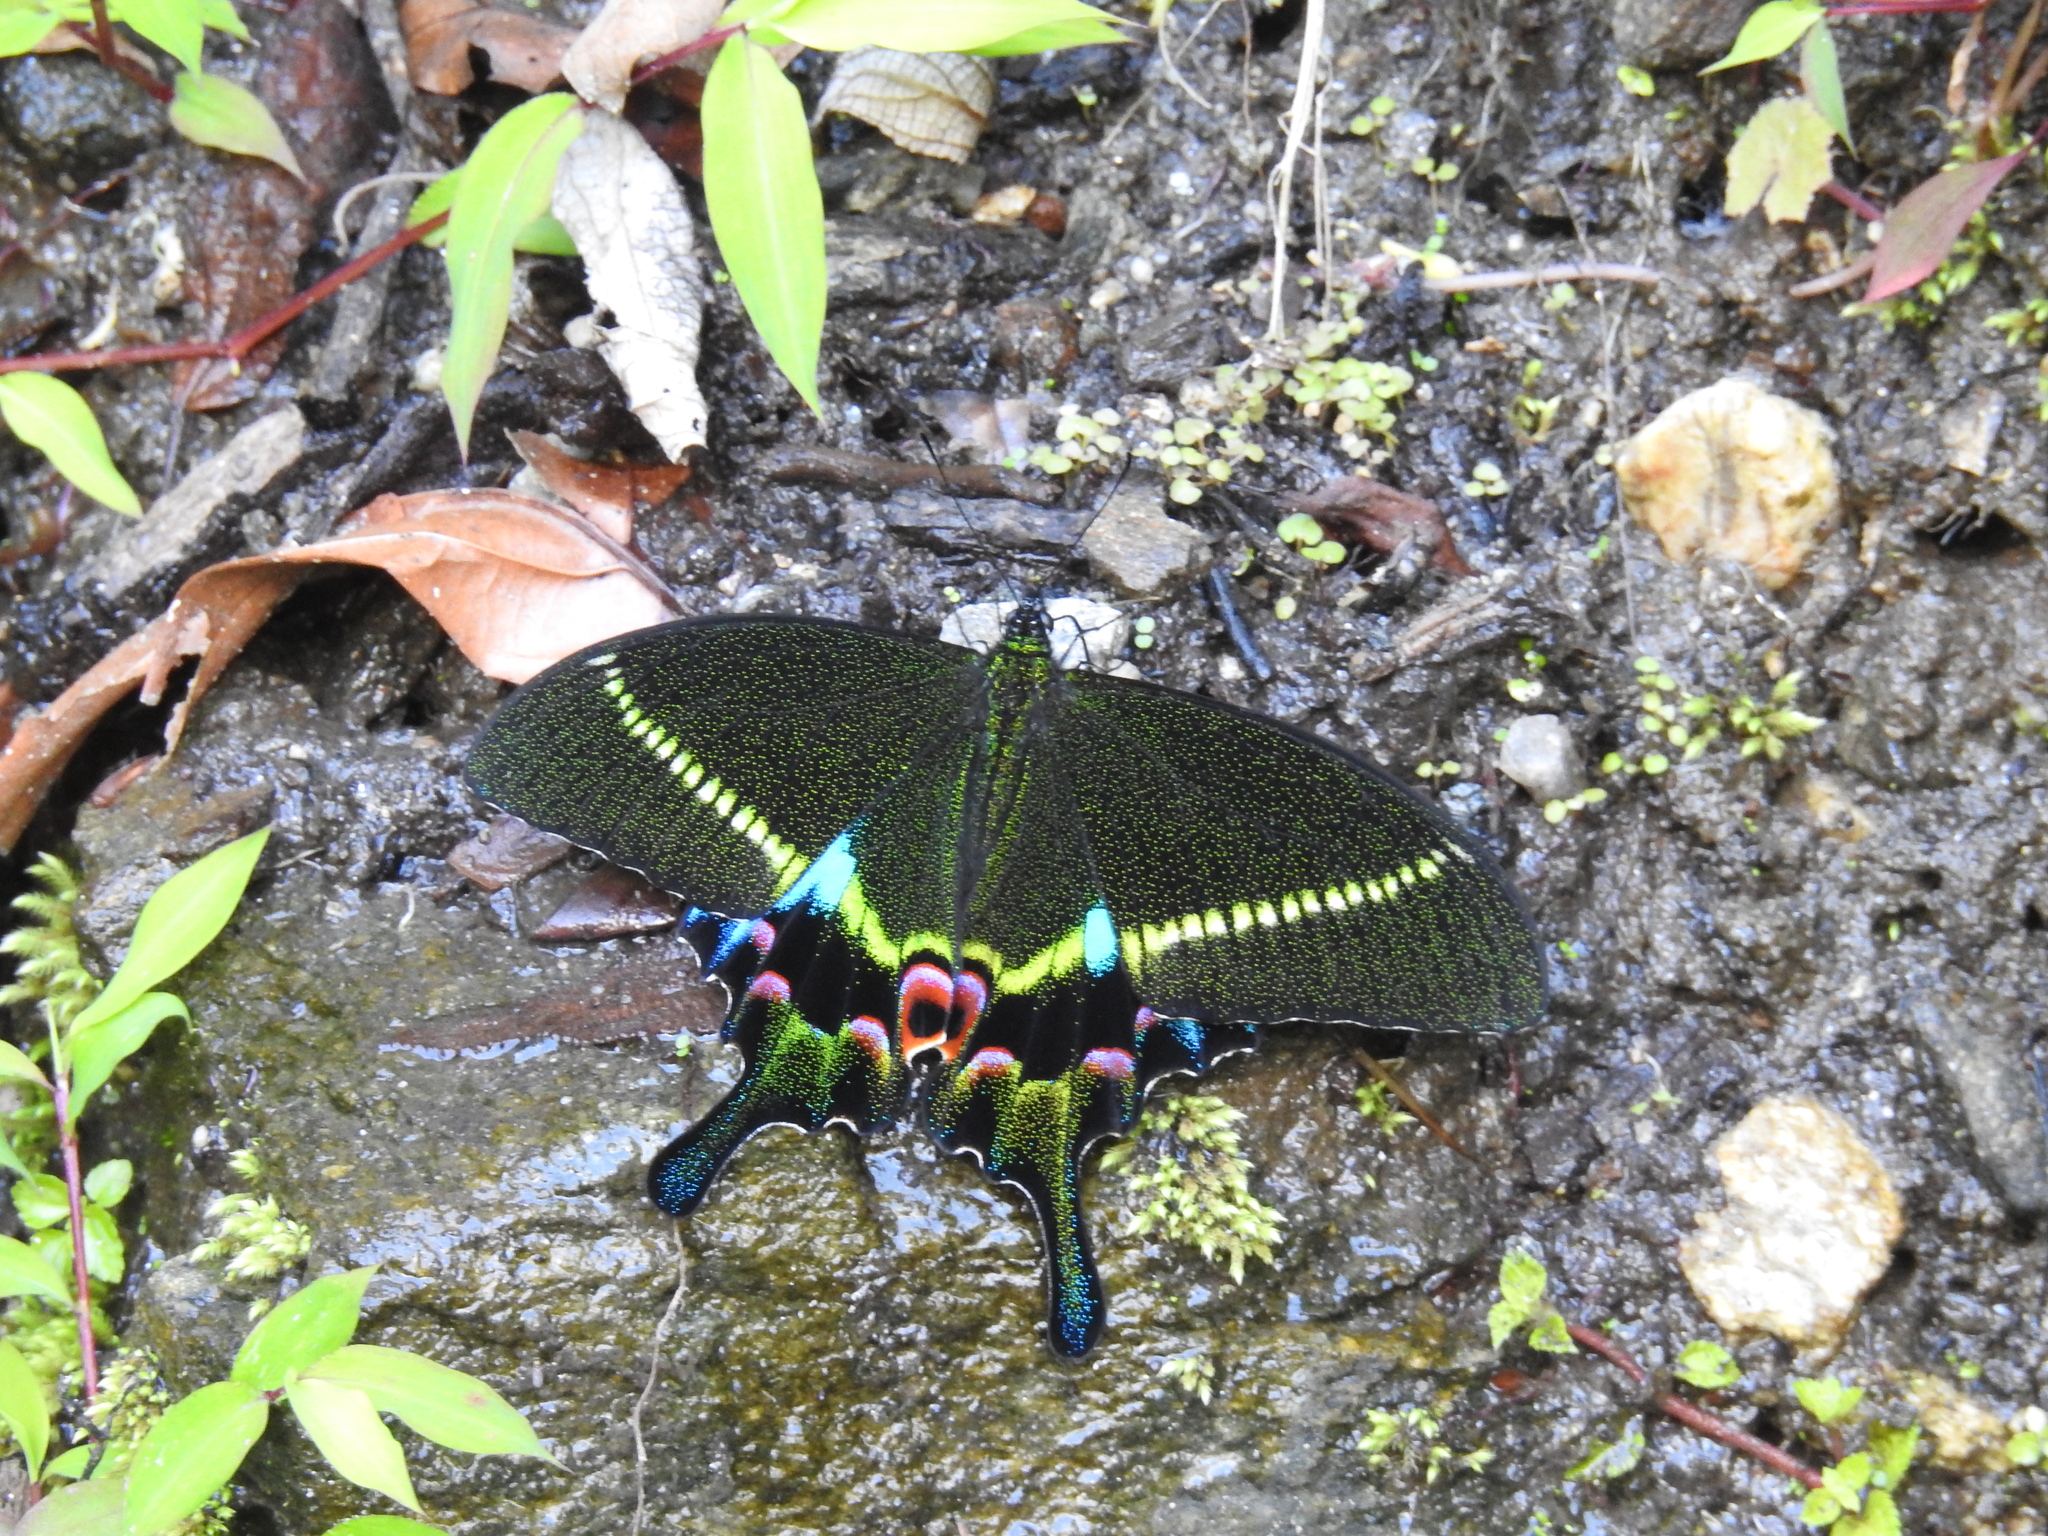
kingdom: Animalia
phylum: Arthropoda
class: Insecta
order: Lepidoptera
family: Papilionidae
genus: Papilio
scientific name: Papilio krishna
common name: Krishna peacock
